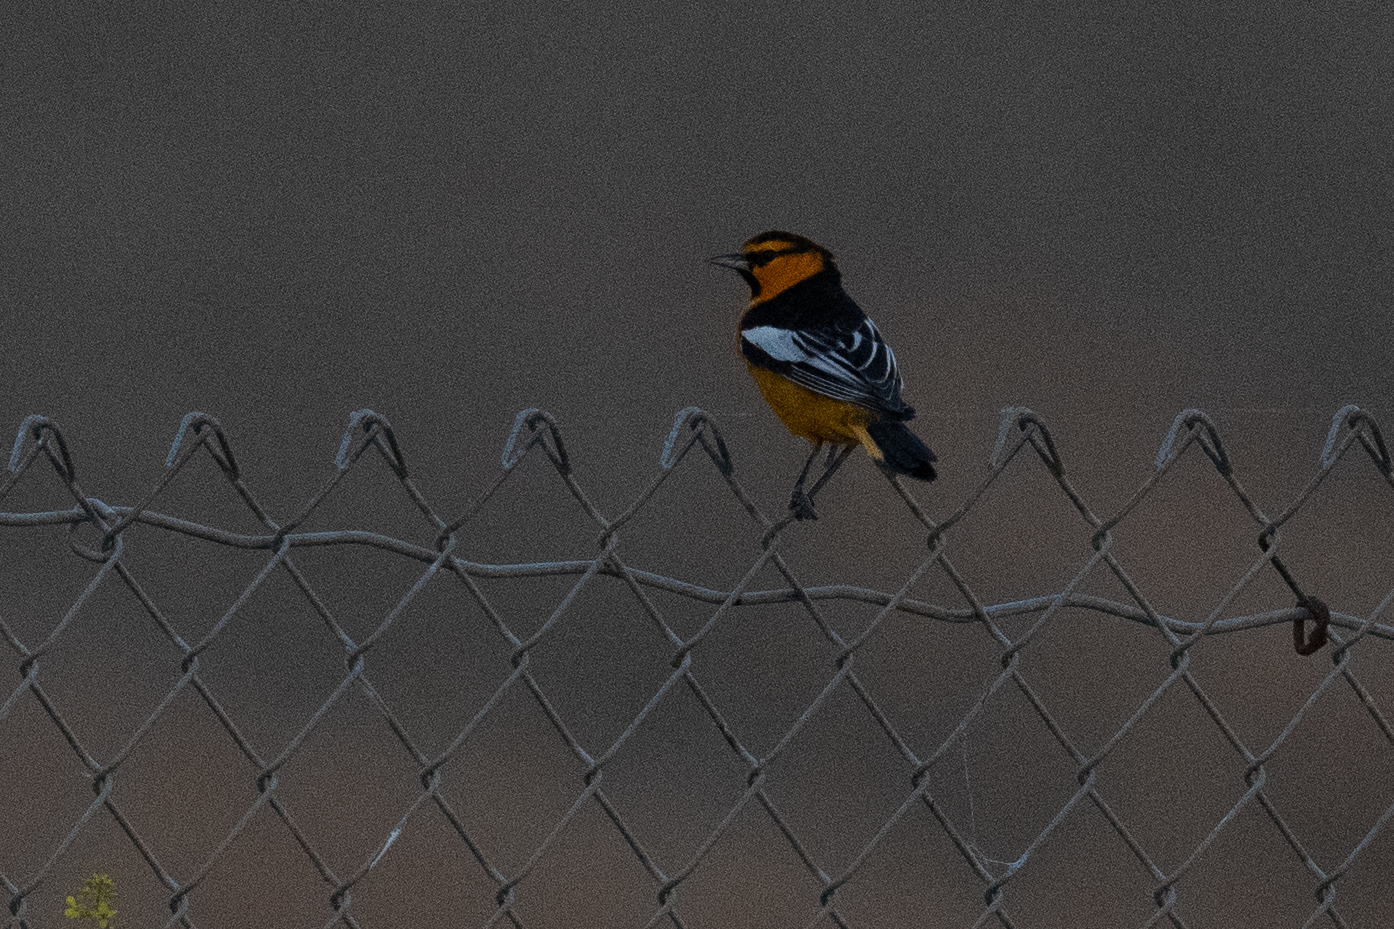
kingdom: Animalia
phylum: Chordata
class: Aves
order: Passeriformes
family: Icteridae
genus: Icterus
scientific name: Icterus bullockii
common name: Bullock's oriole
